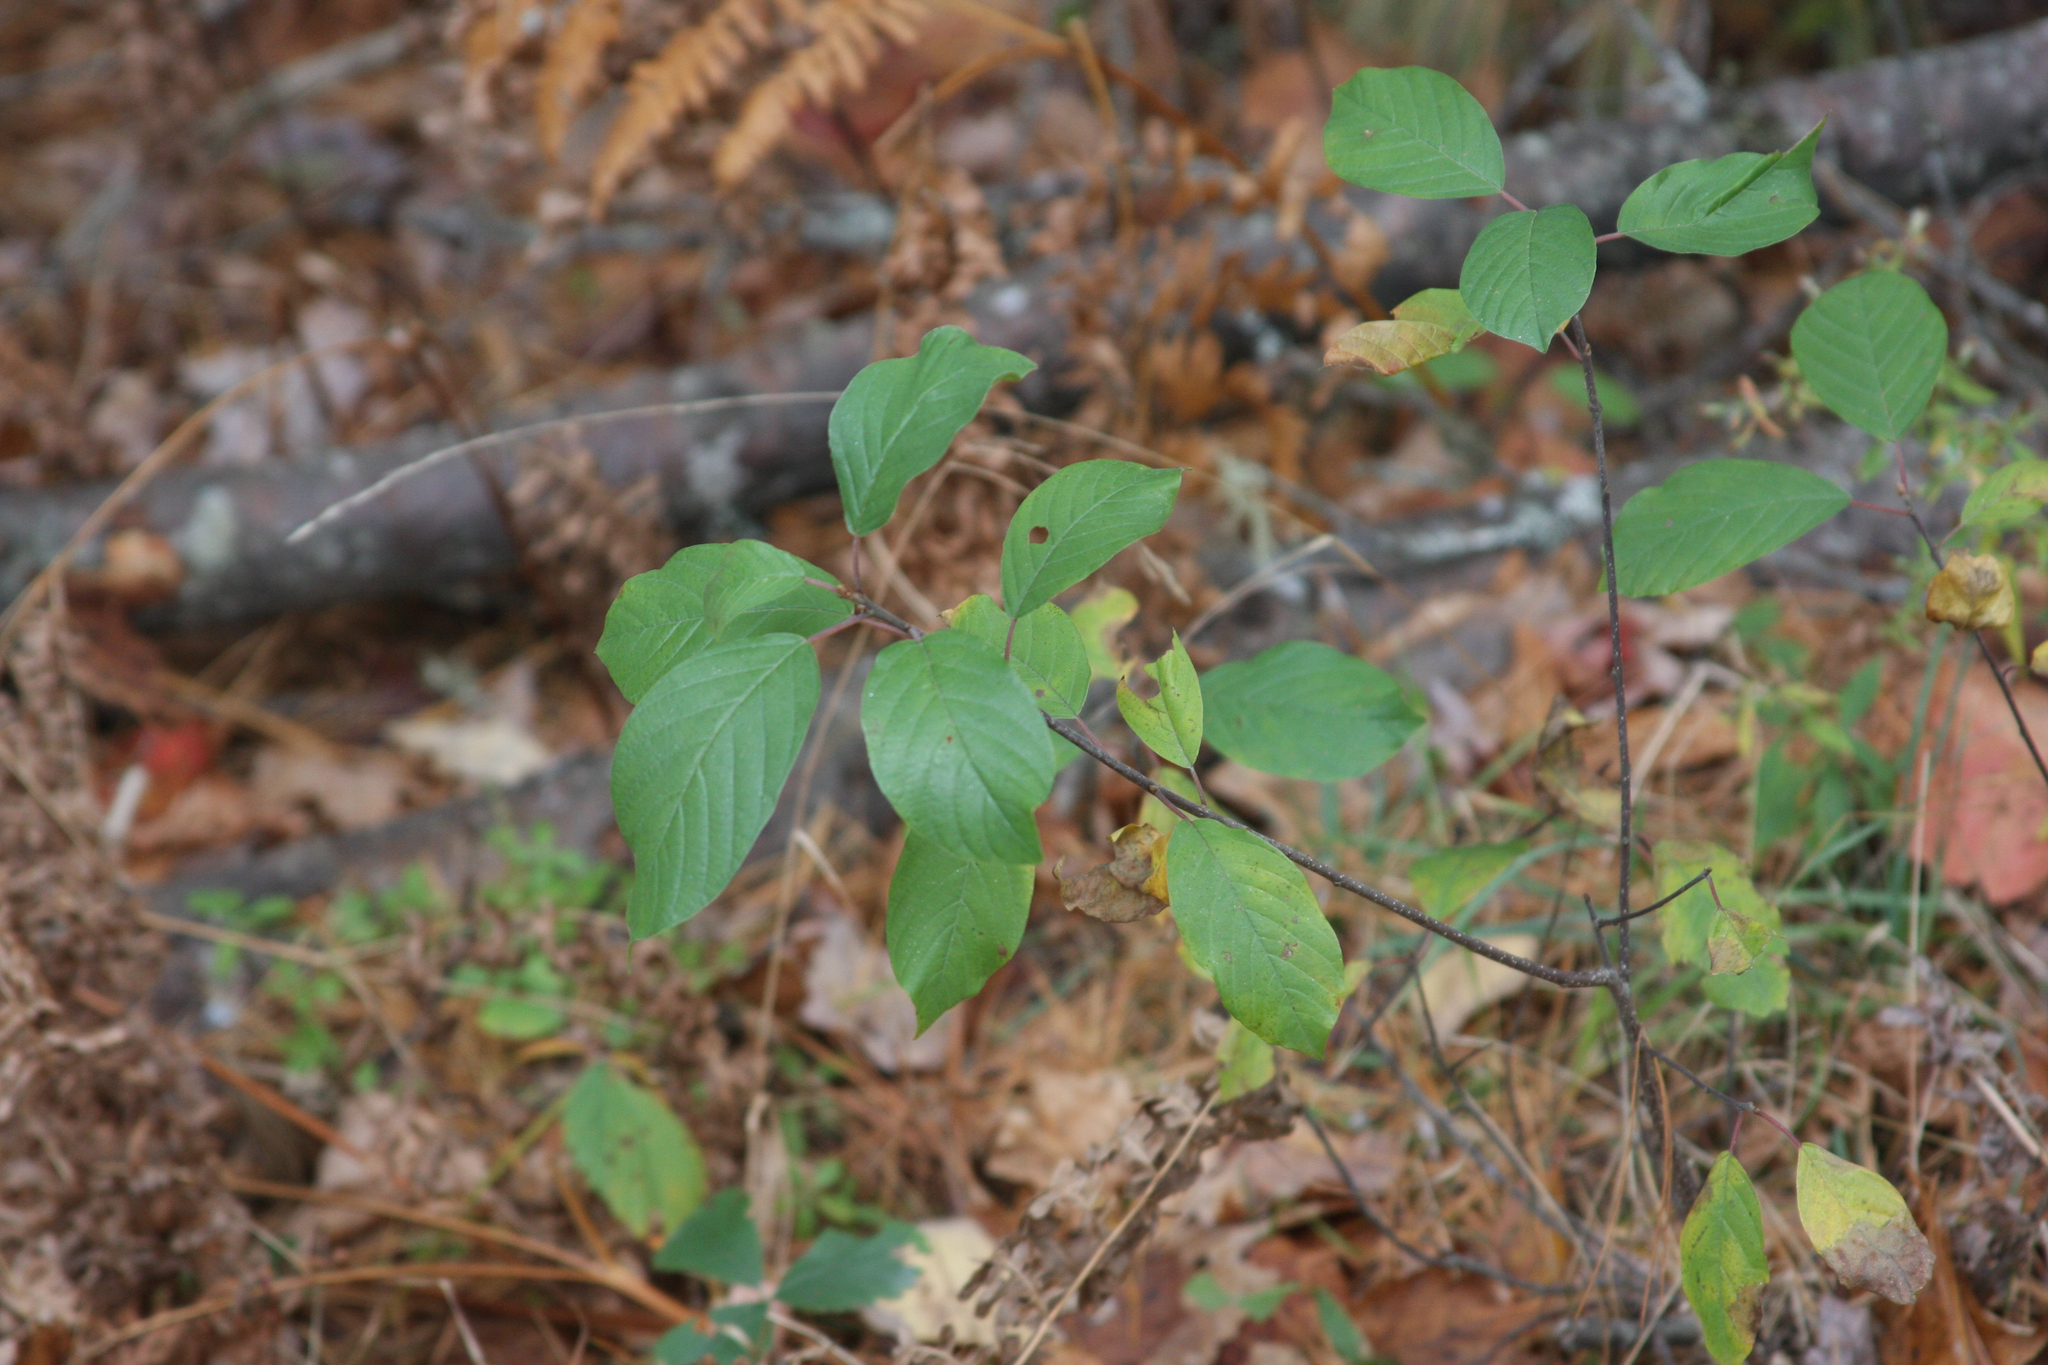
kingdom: Plantae
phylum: Tracheophyta
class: Magnoliopsida
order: Rosales
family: Rhamnaceae
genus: Frangula
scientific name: Frangula alnus
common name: Alder buckthorn
